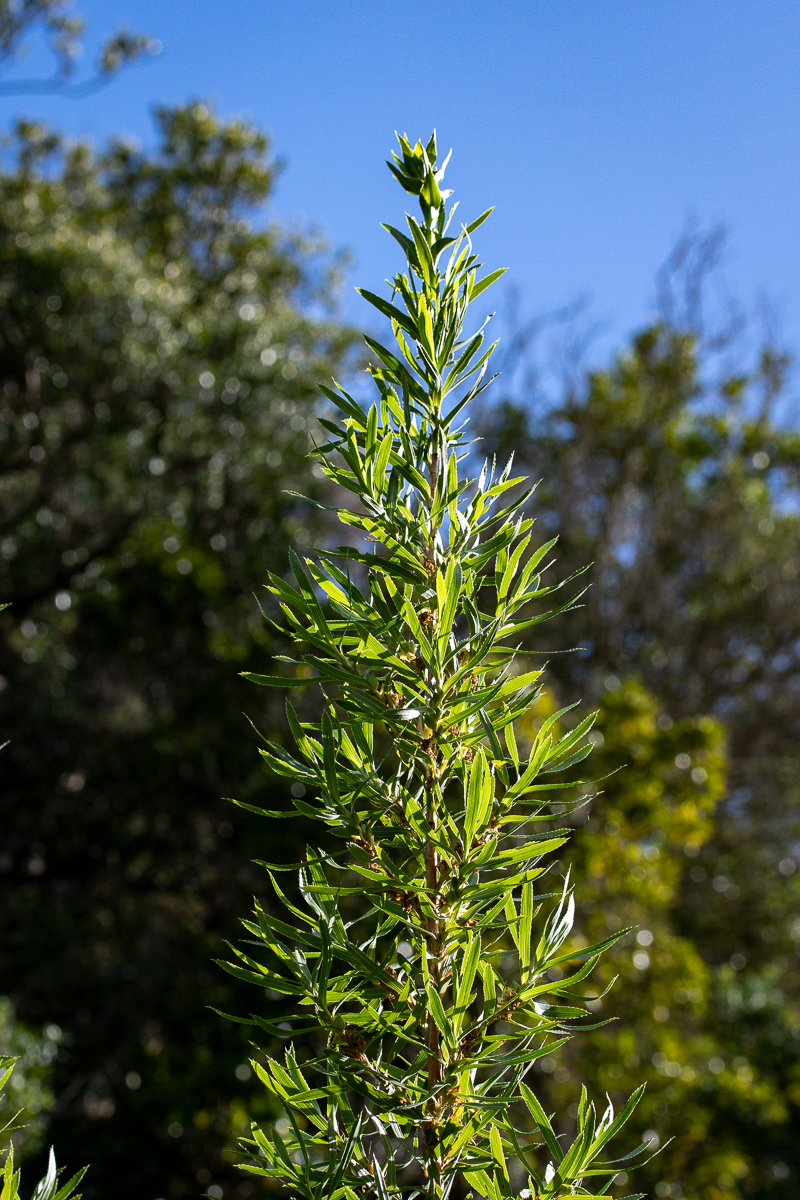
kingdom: Plantae
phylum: Tracheophyta
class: Magnoliopsida
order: Rosales
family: Rosaceae
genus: Cliffortia
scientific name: Cliffortia heterophylla
